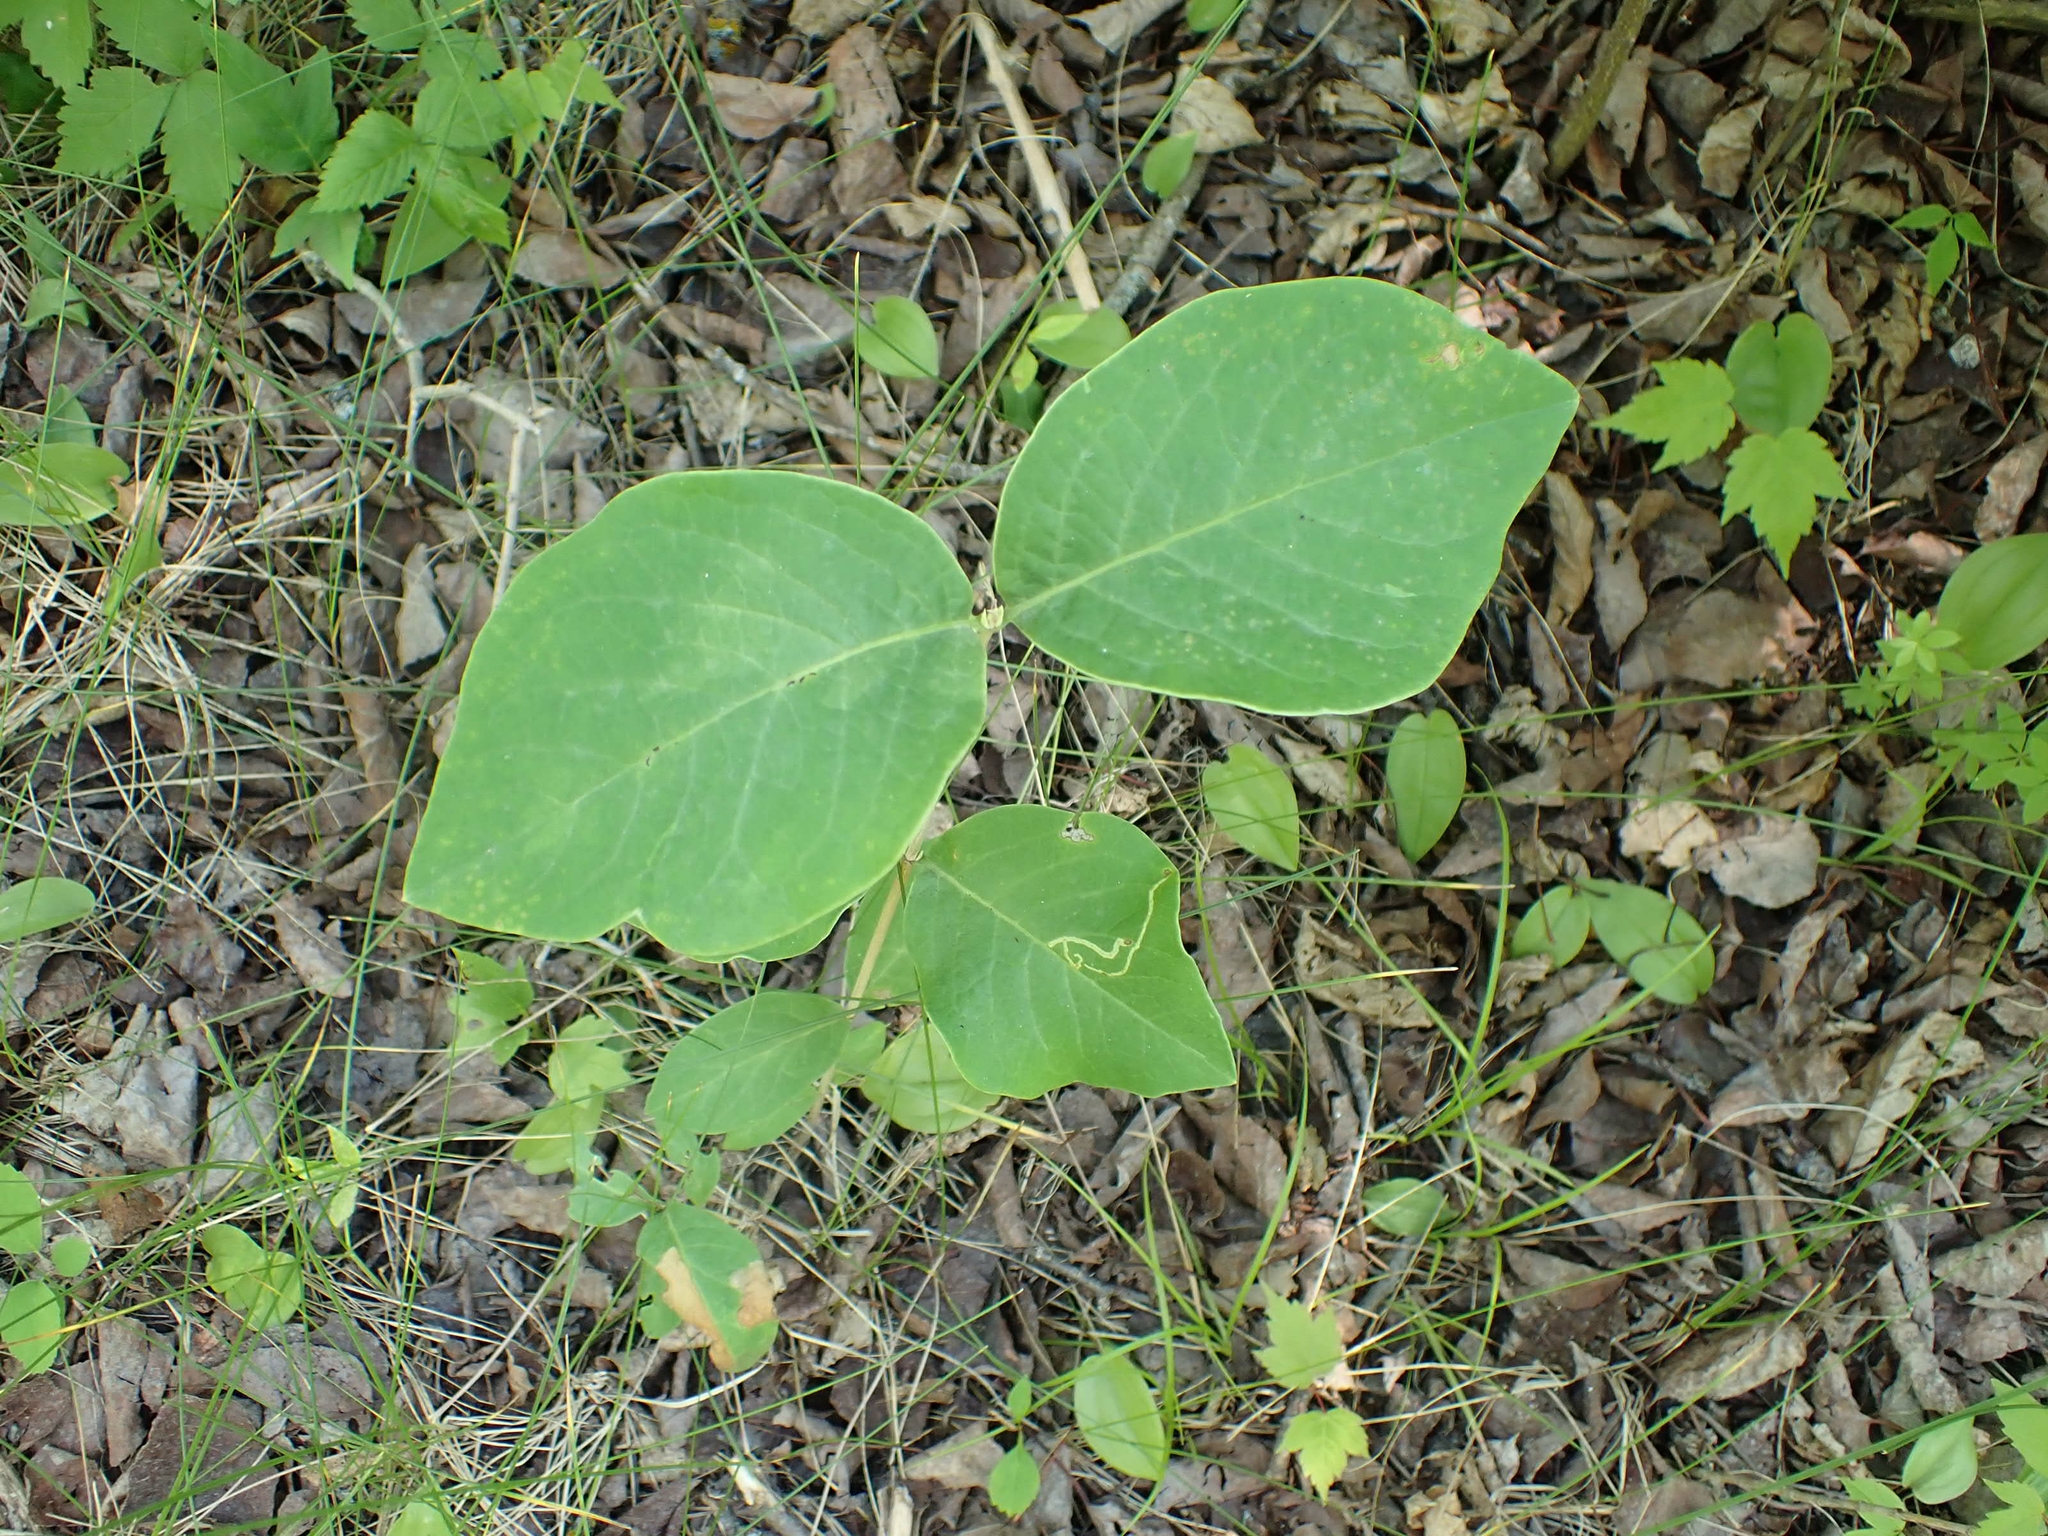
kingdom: Plantae
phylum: Tracheophyta
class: Magnoliopsida
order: Dipsacales
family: Caprifoliaceae
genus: Lonicera
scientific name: Lonicera dioica
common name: Limber honeysuckle
